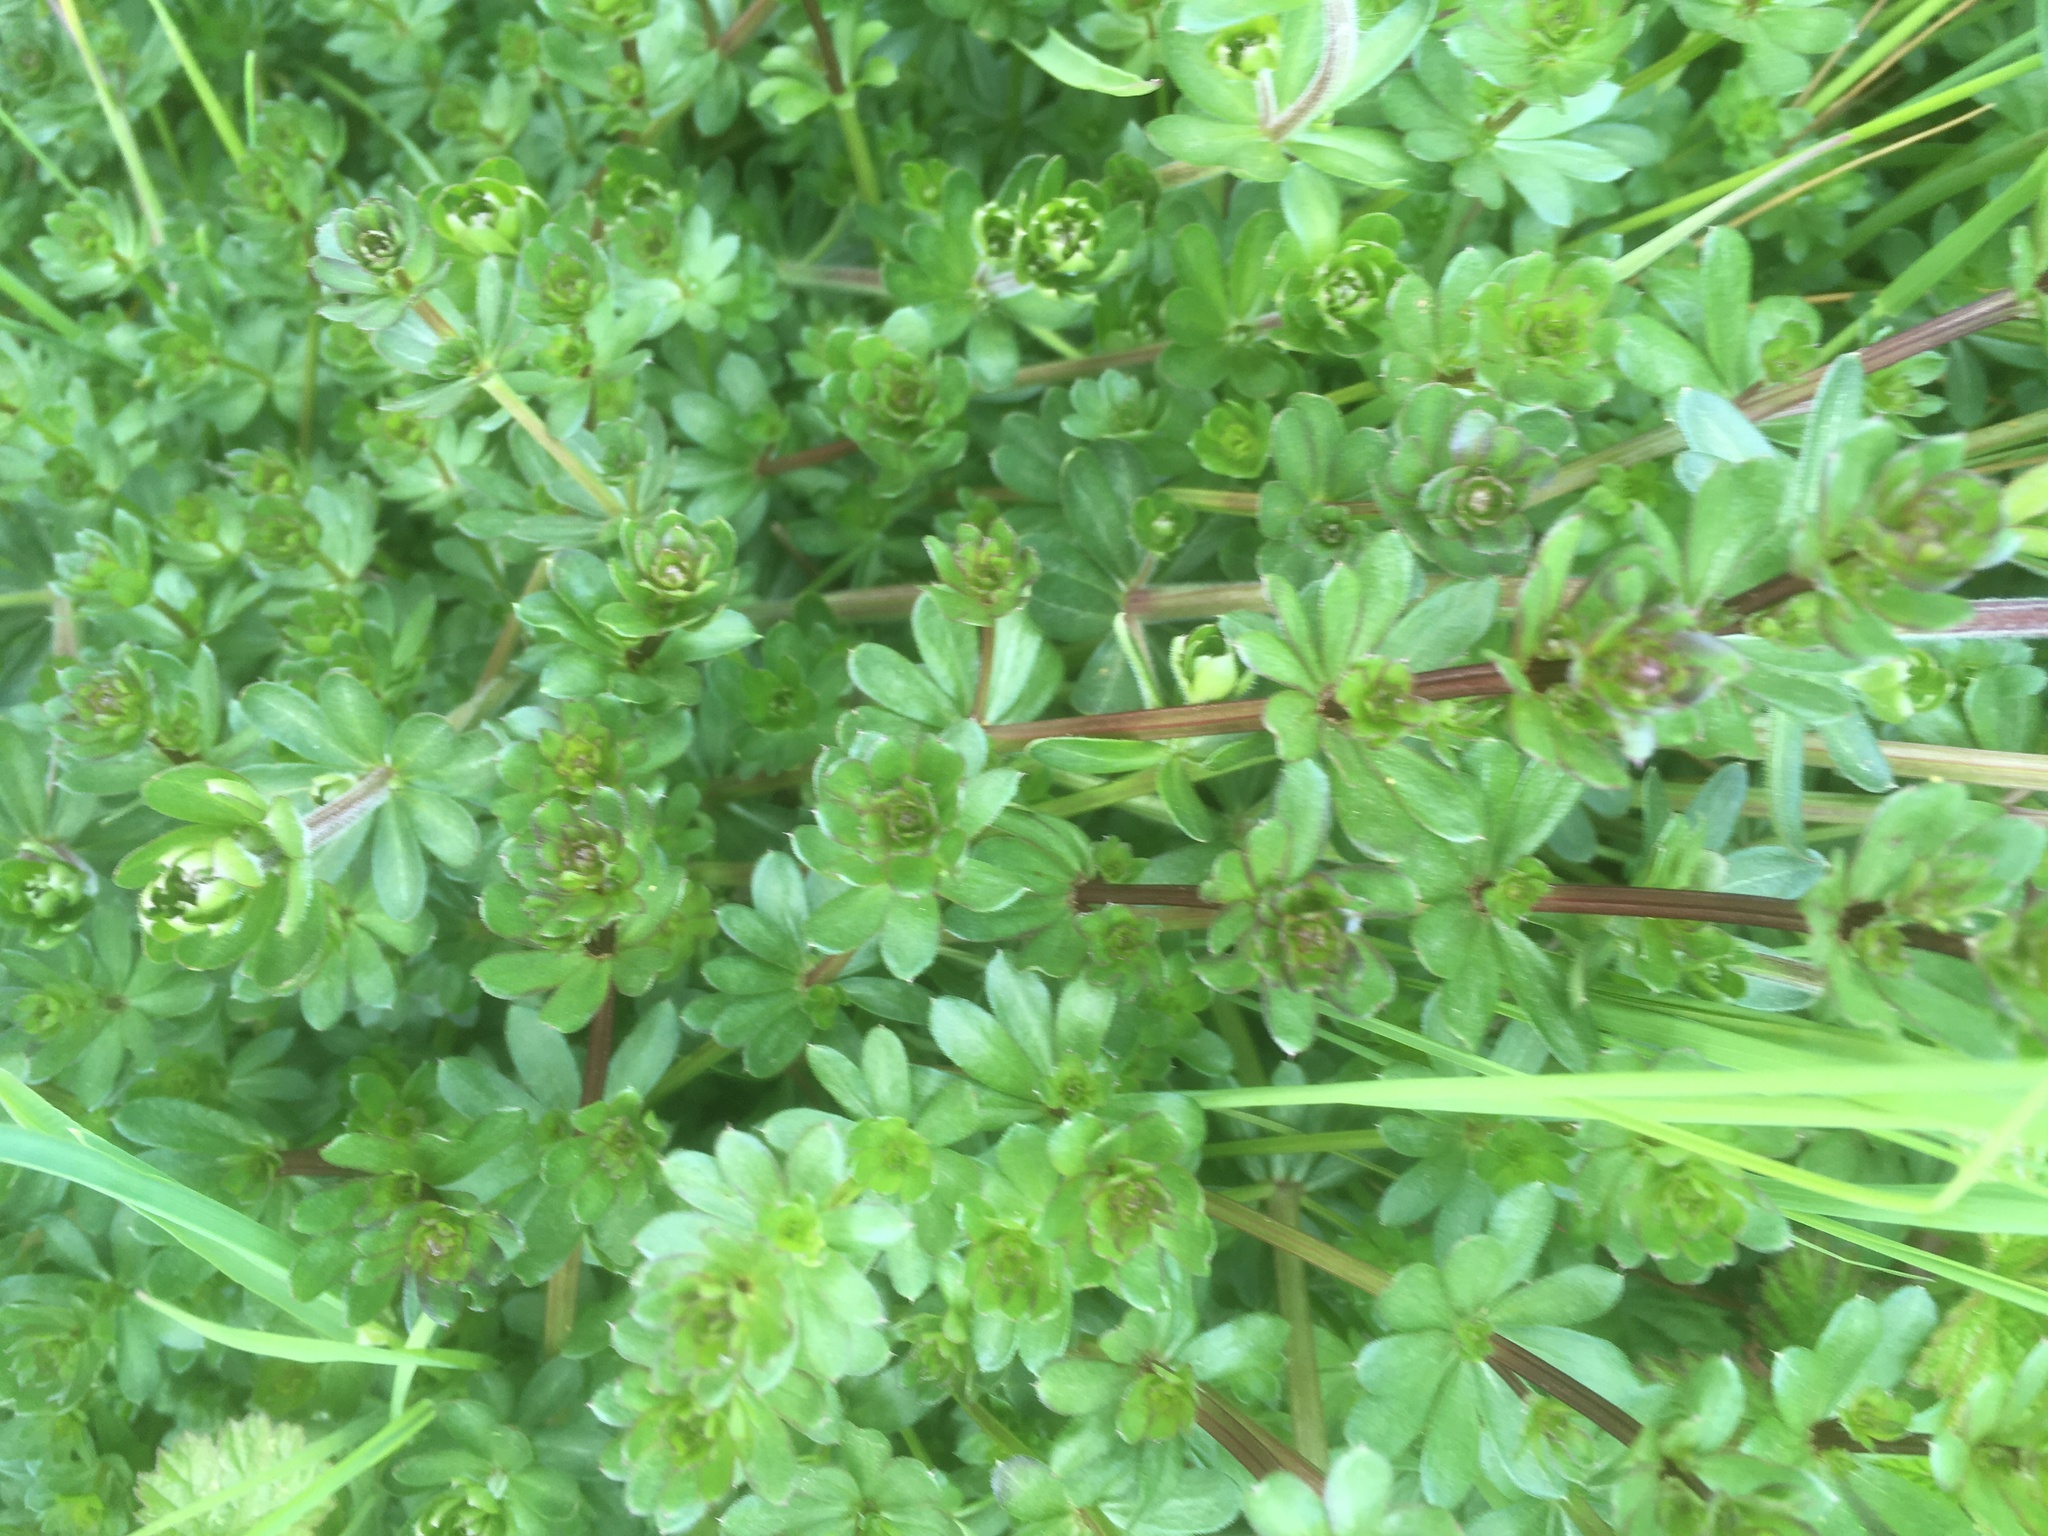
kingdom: Plantae
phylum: Tracheophyta
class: Magnoliopsida
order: Gentianales
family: Rubiaceae
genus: Galium
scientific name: Galium mollugo
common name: Hedge bedstraw
